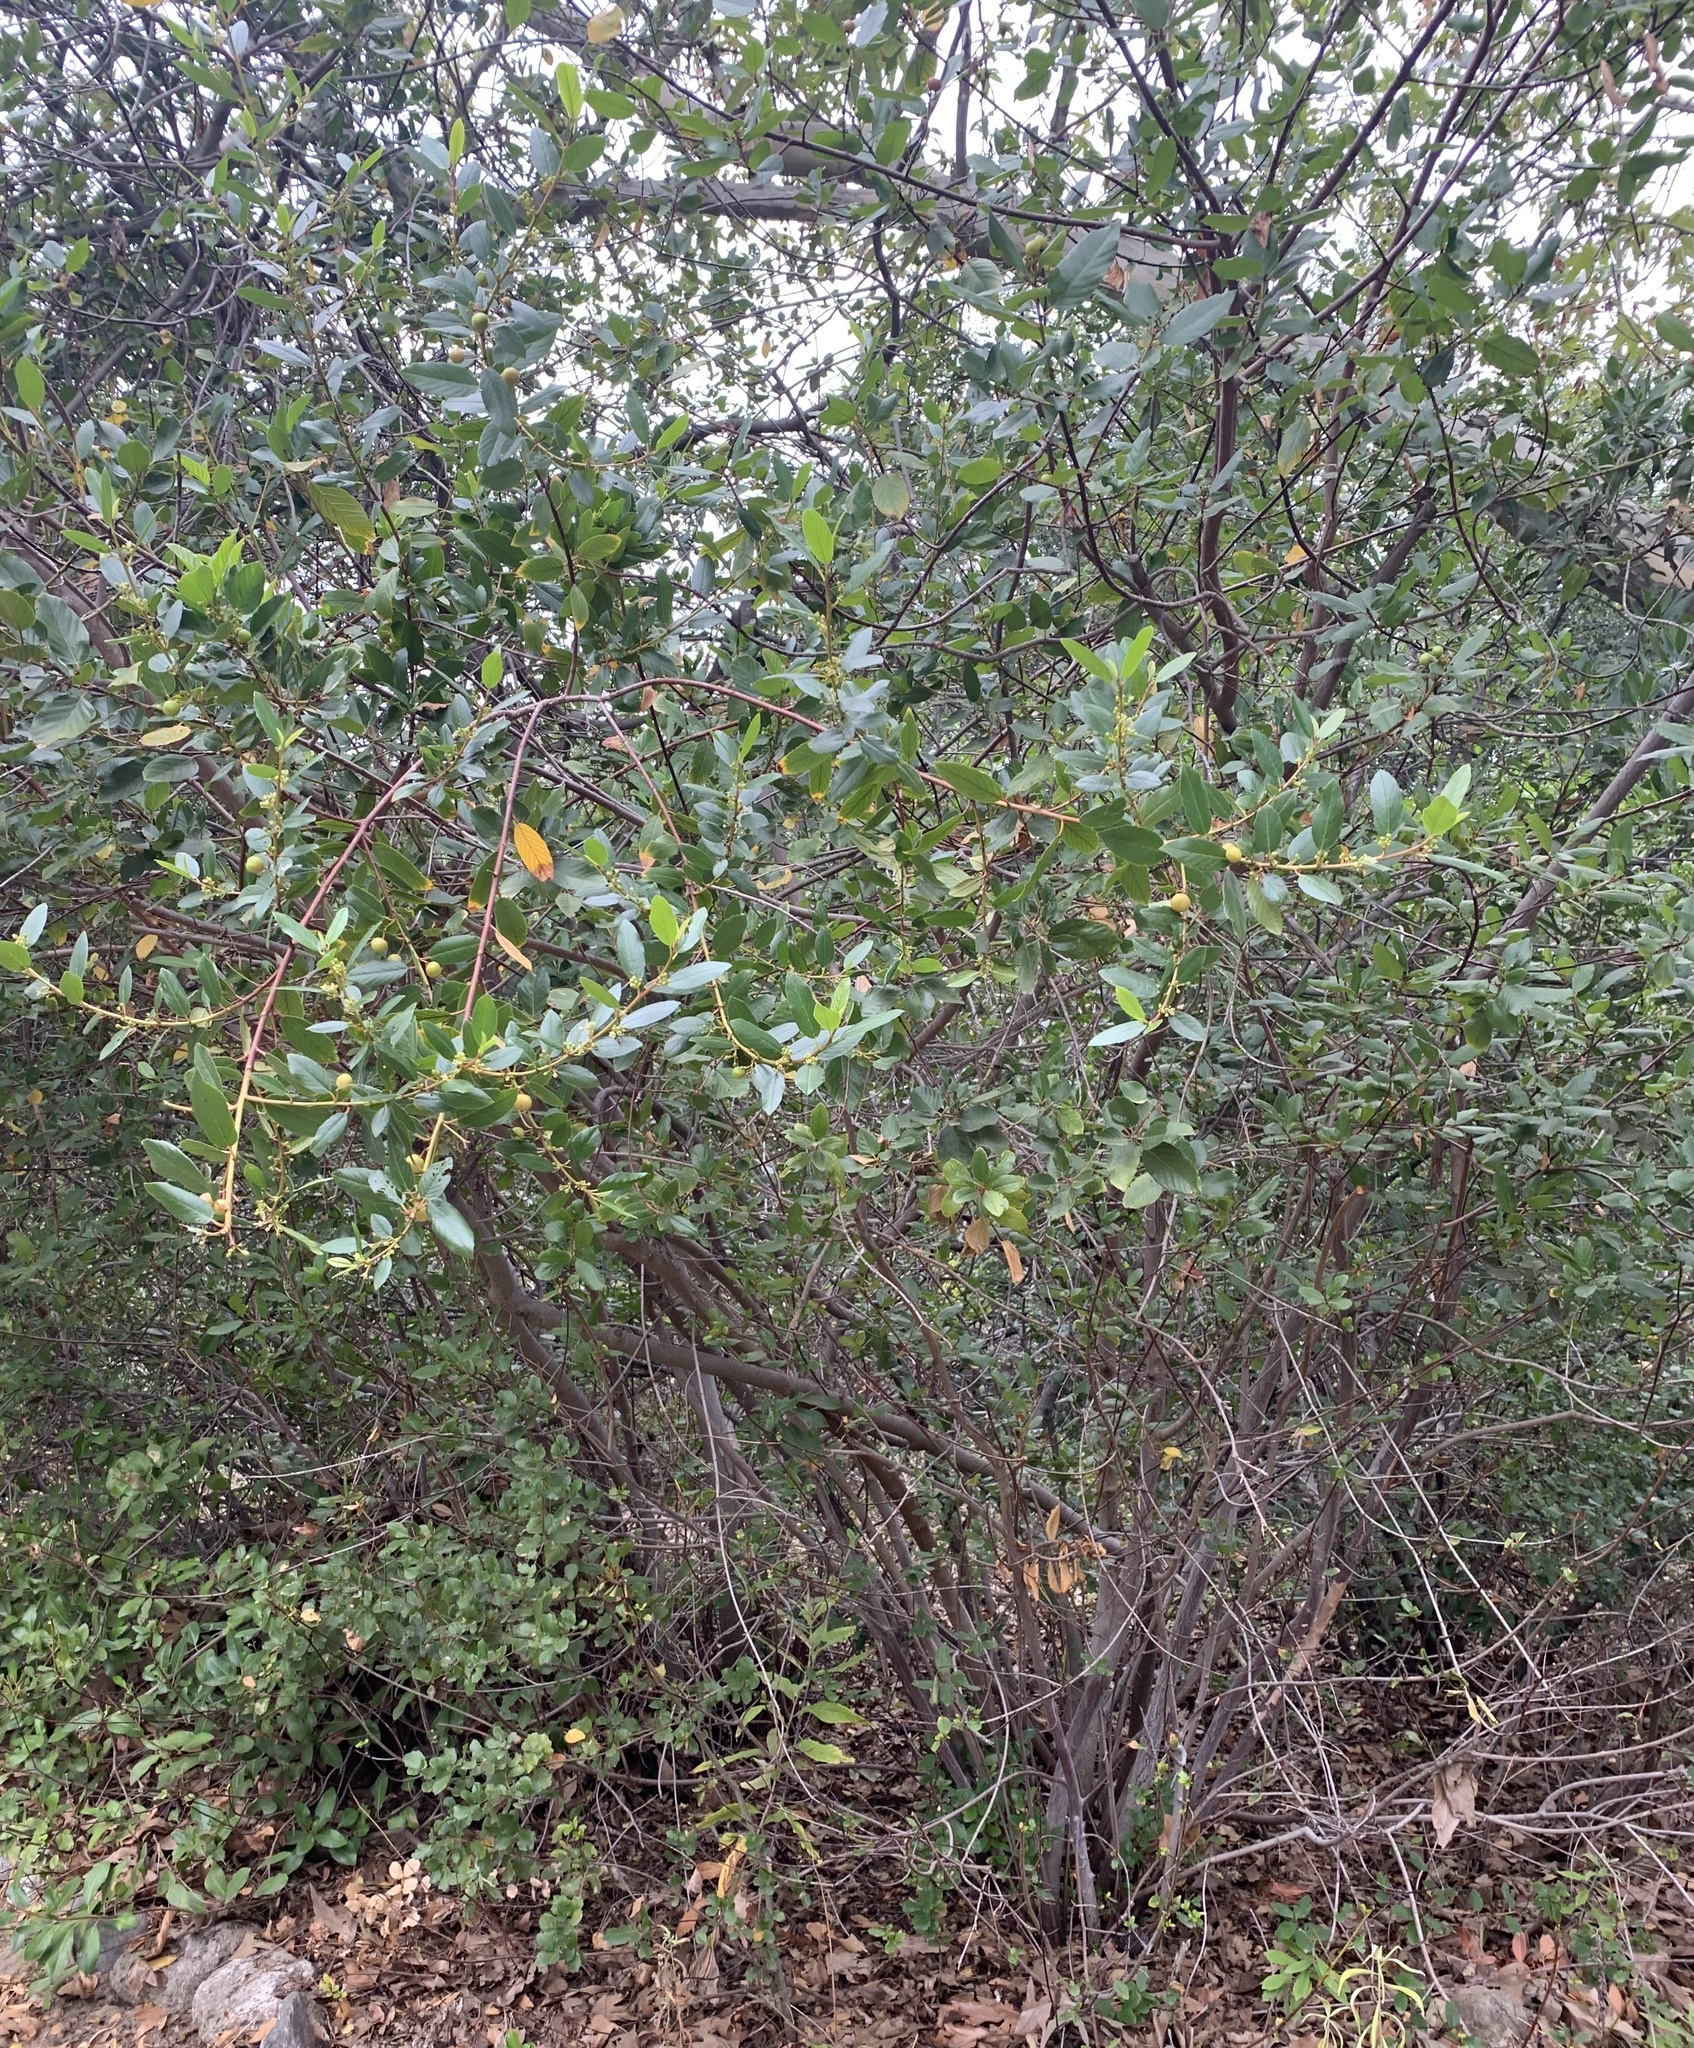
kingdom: Plantae
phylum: Tracheophyta
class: Magnoliopsida
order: Rosales
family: Rhamnaceae
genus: Frangula
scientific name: Frangula californica
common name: California buckthorn
